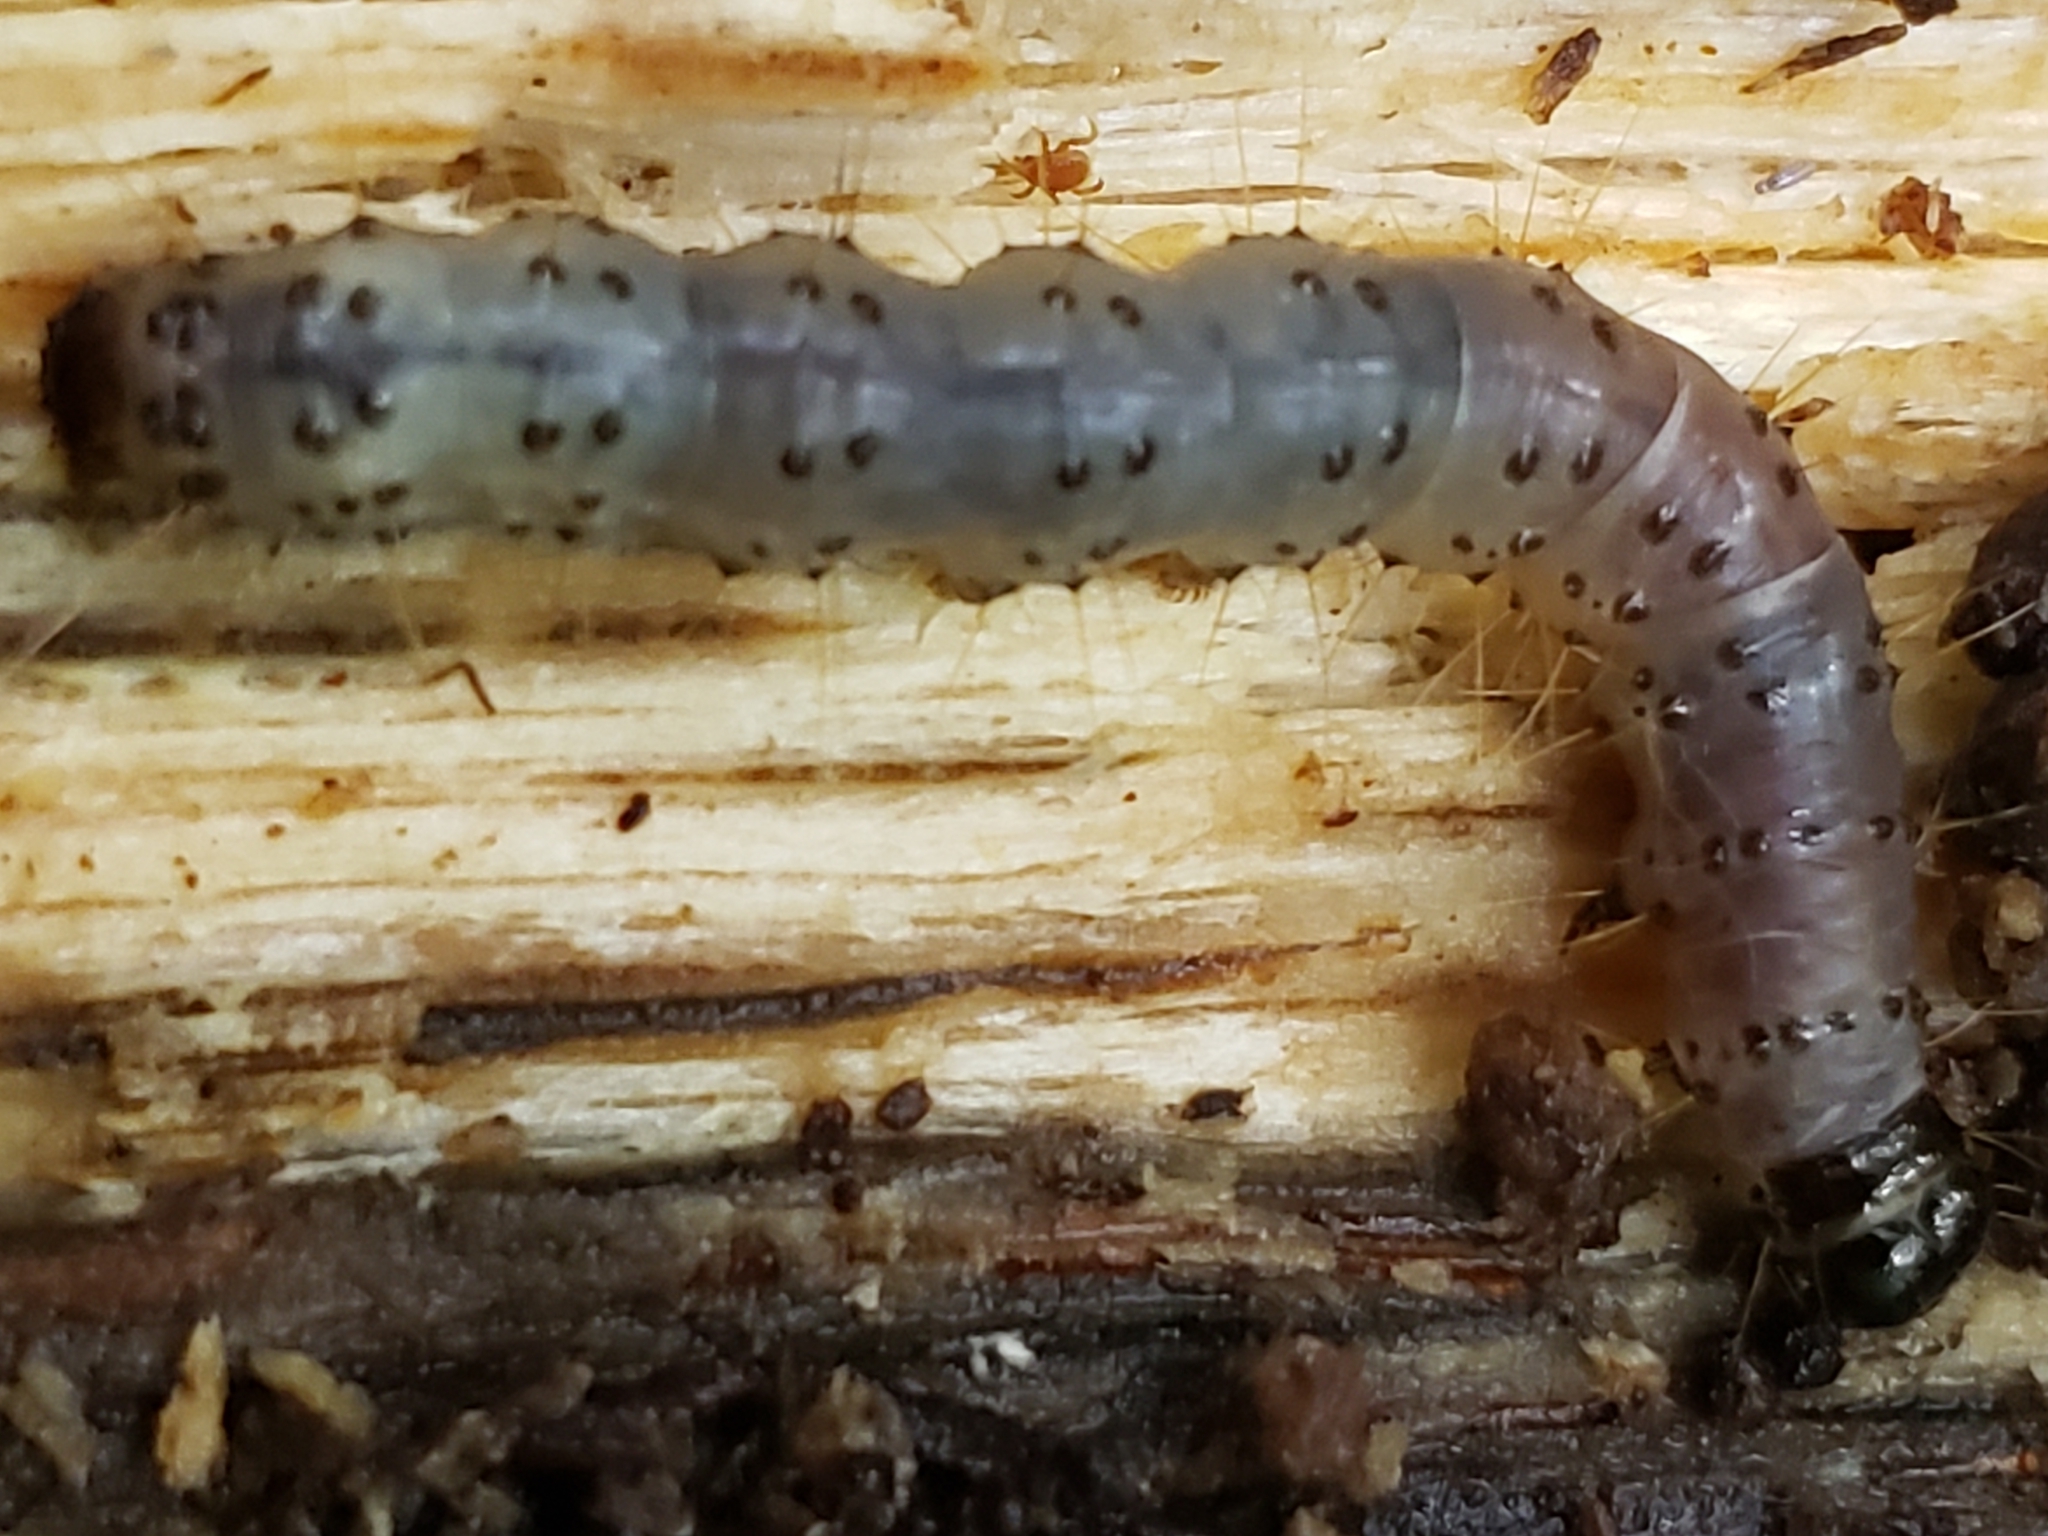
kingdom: Animalia
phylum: Arthropoda
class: Insecta
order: Lepidoptera
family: Erebidae
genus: Scolecocampa
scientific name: Scolecocampa liburna
